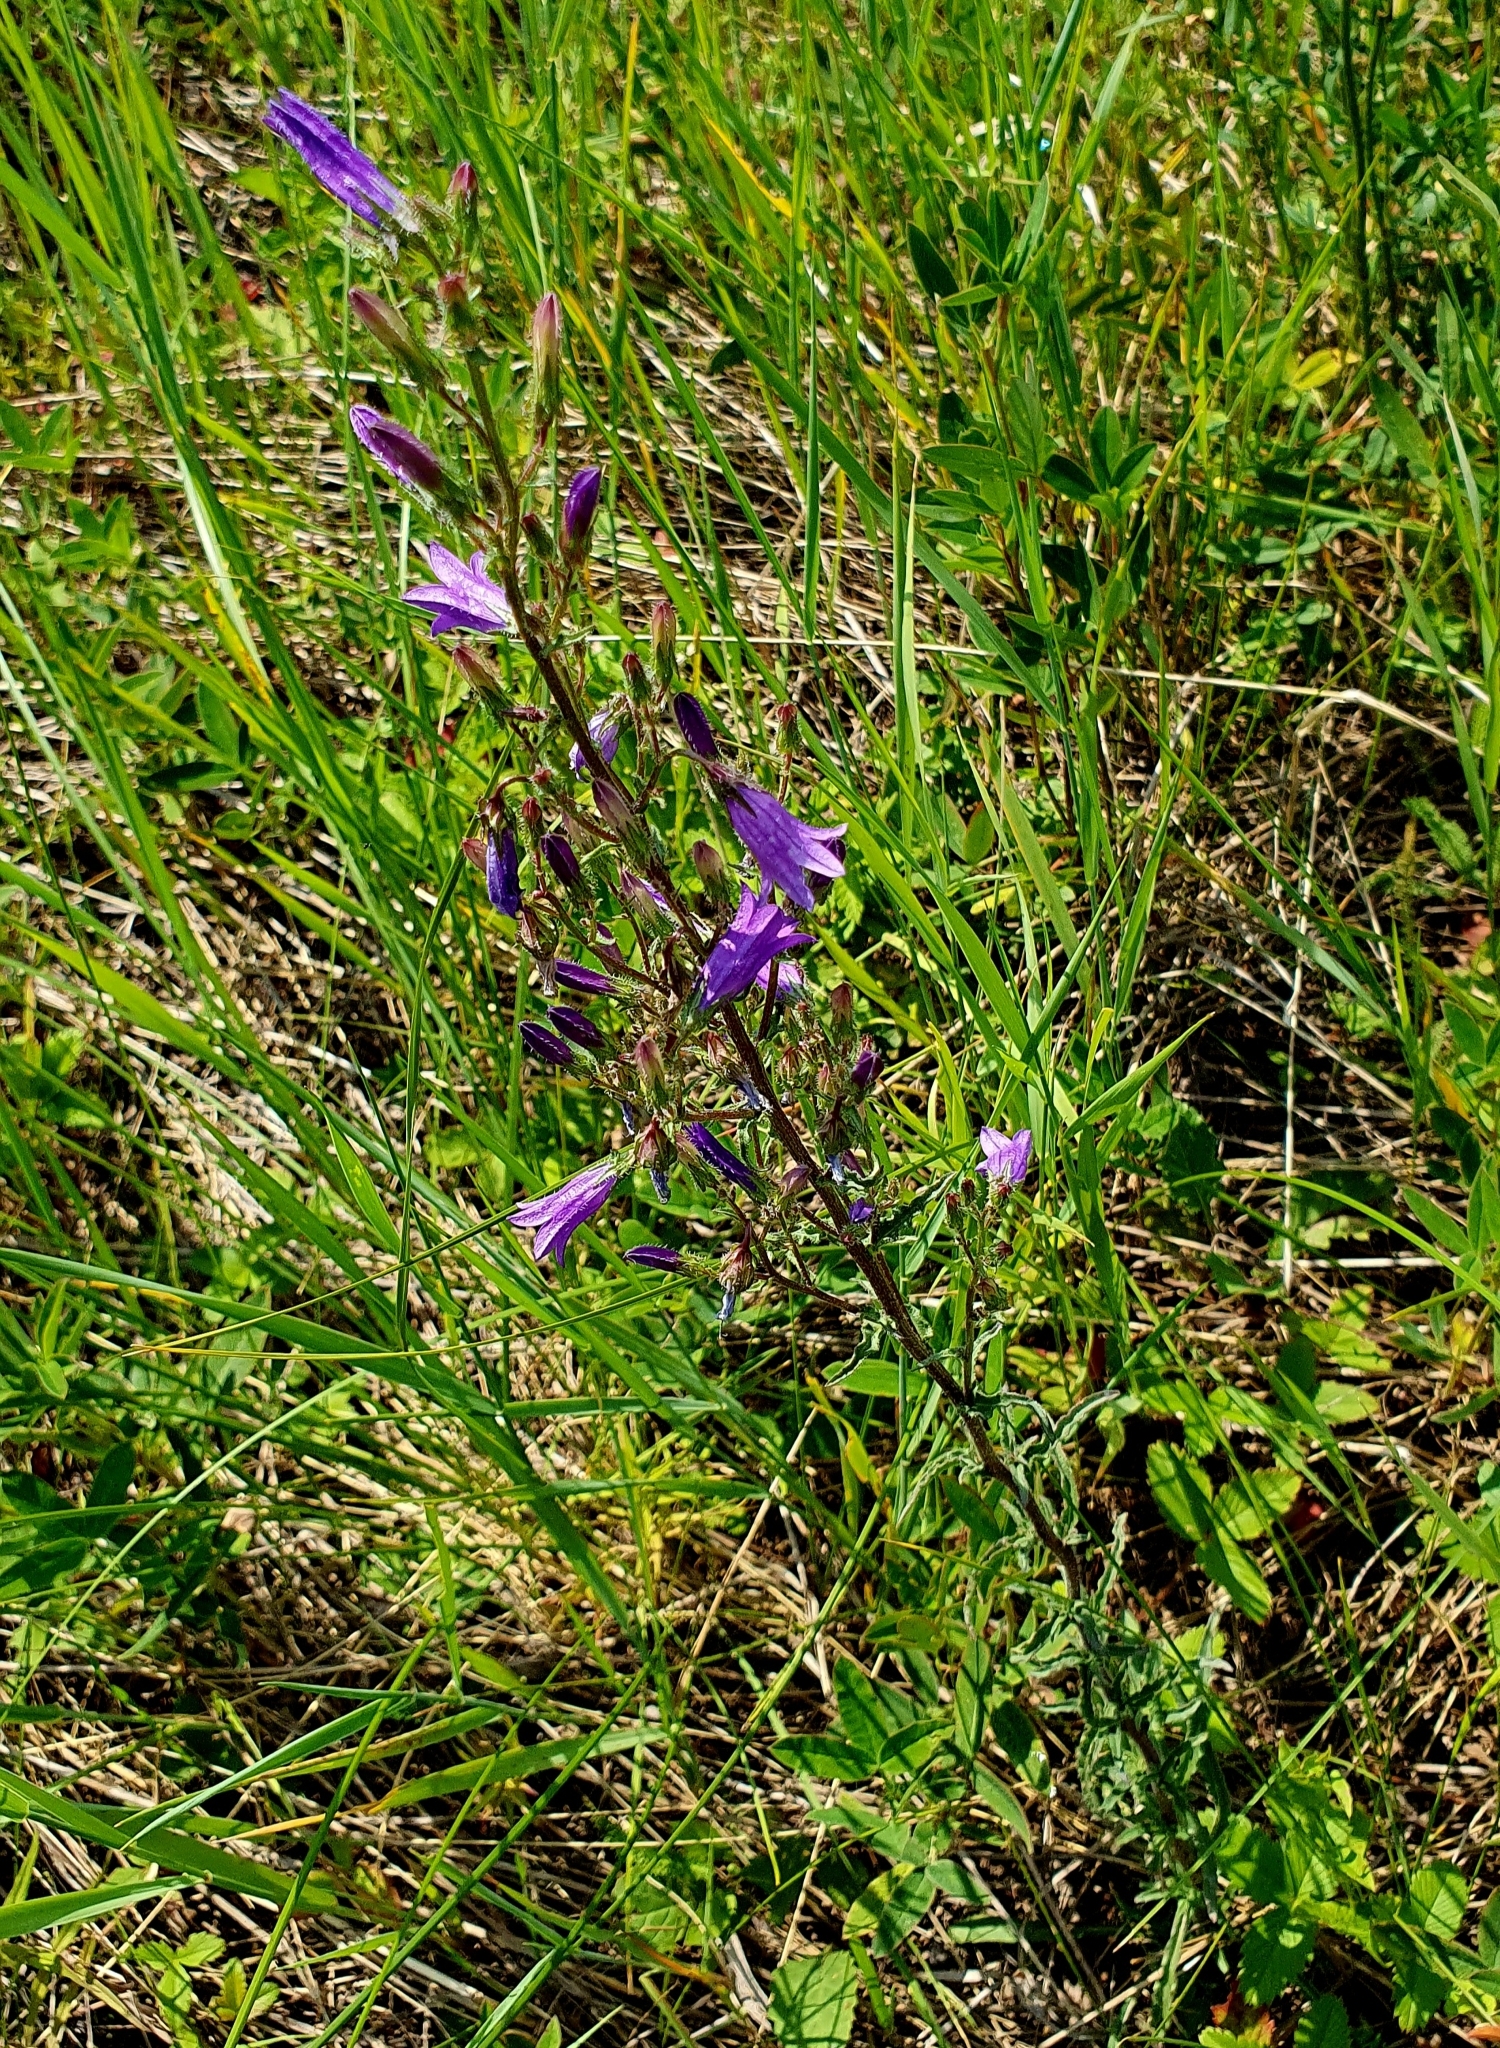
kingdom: Plantae
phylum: Tracheophyta
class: Magnoliopsida
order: Asterales
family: Campanulaceae
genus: Campanula
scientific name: Campanula sibirica
